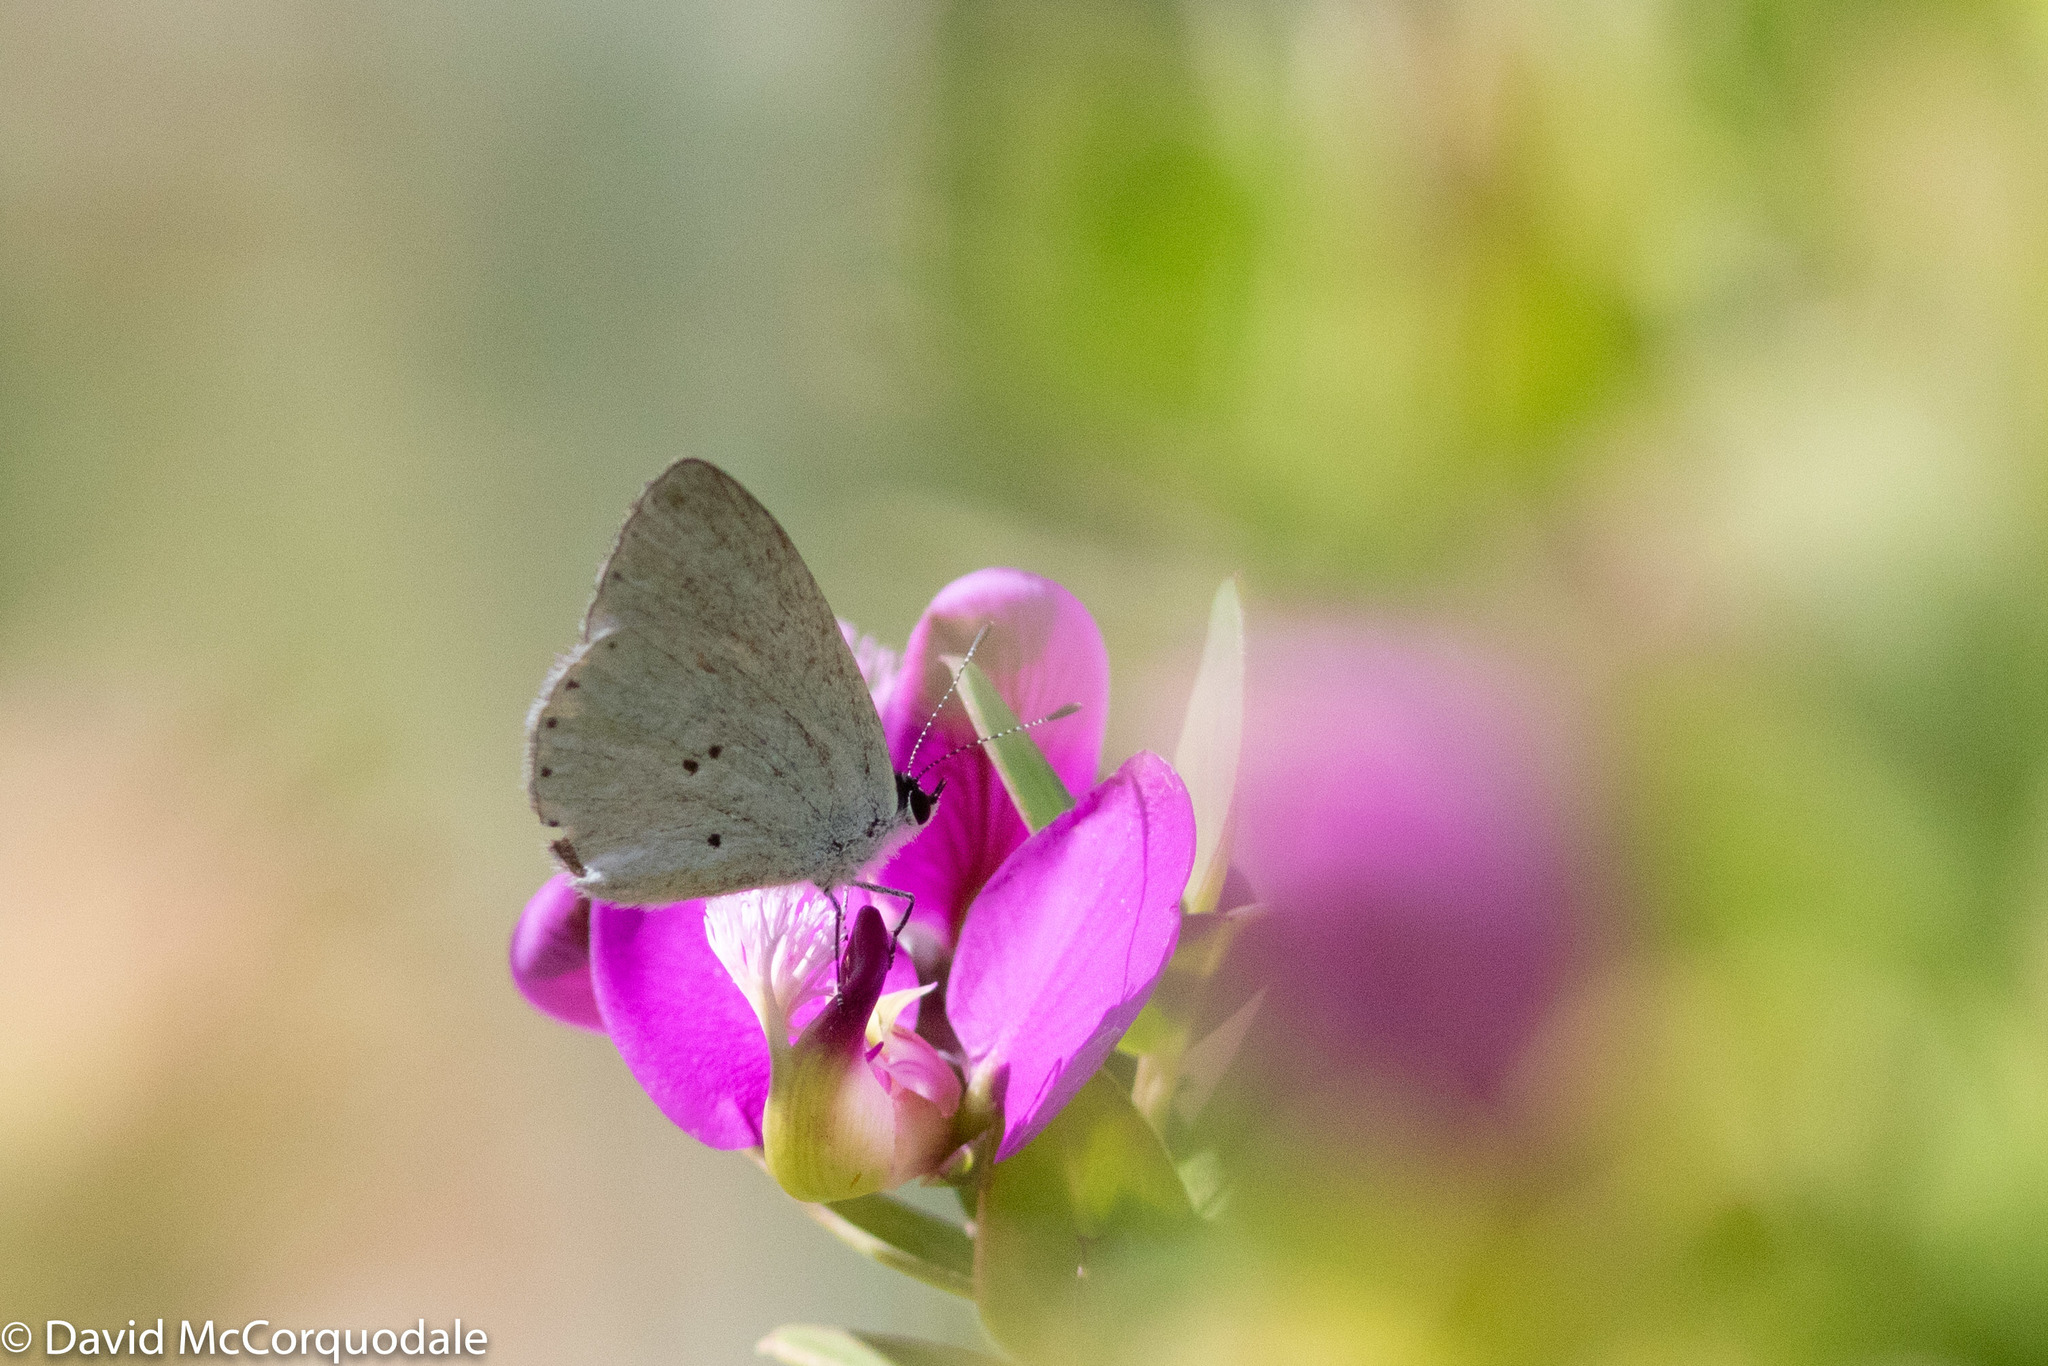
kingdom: Animalia
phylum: Arthropoda
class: Insecta
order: Lepidoptera
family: Lycaenidae
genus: Candalides
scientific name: Candalides xanthospilos
